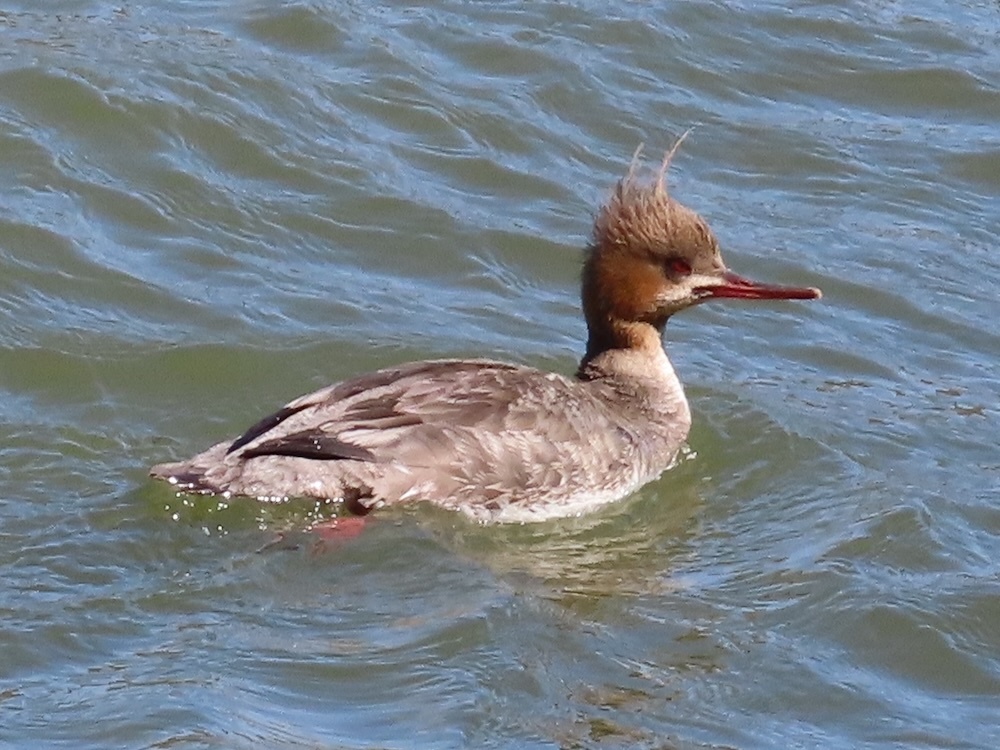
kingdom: Animalia
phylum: Chordata
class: Aves
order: Anseriformes
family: Anatidae
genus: Mergus
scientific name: Mergus serrator
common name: Red-breasted merganser
